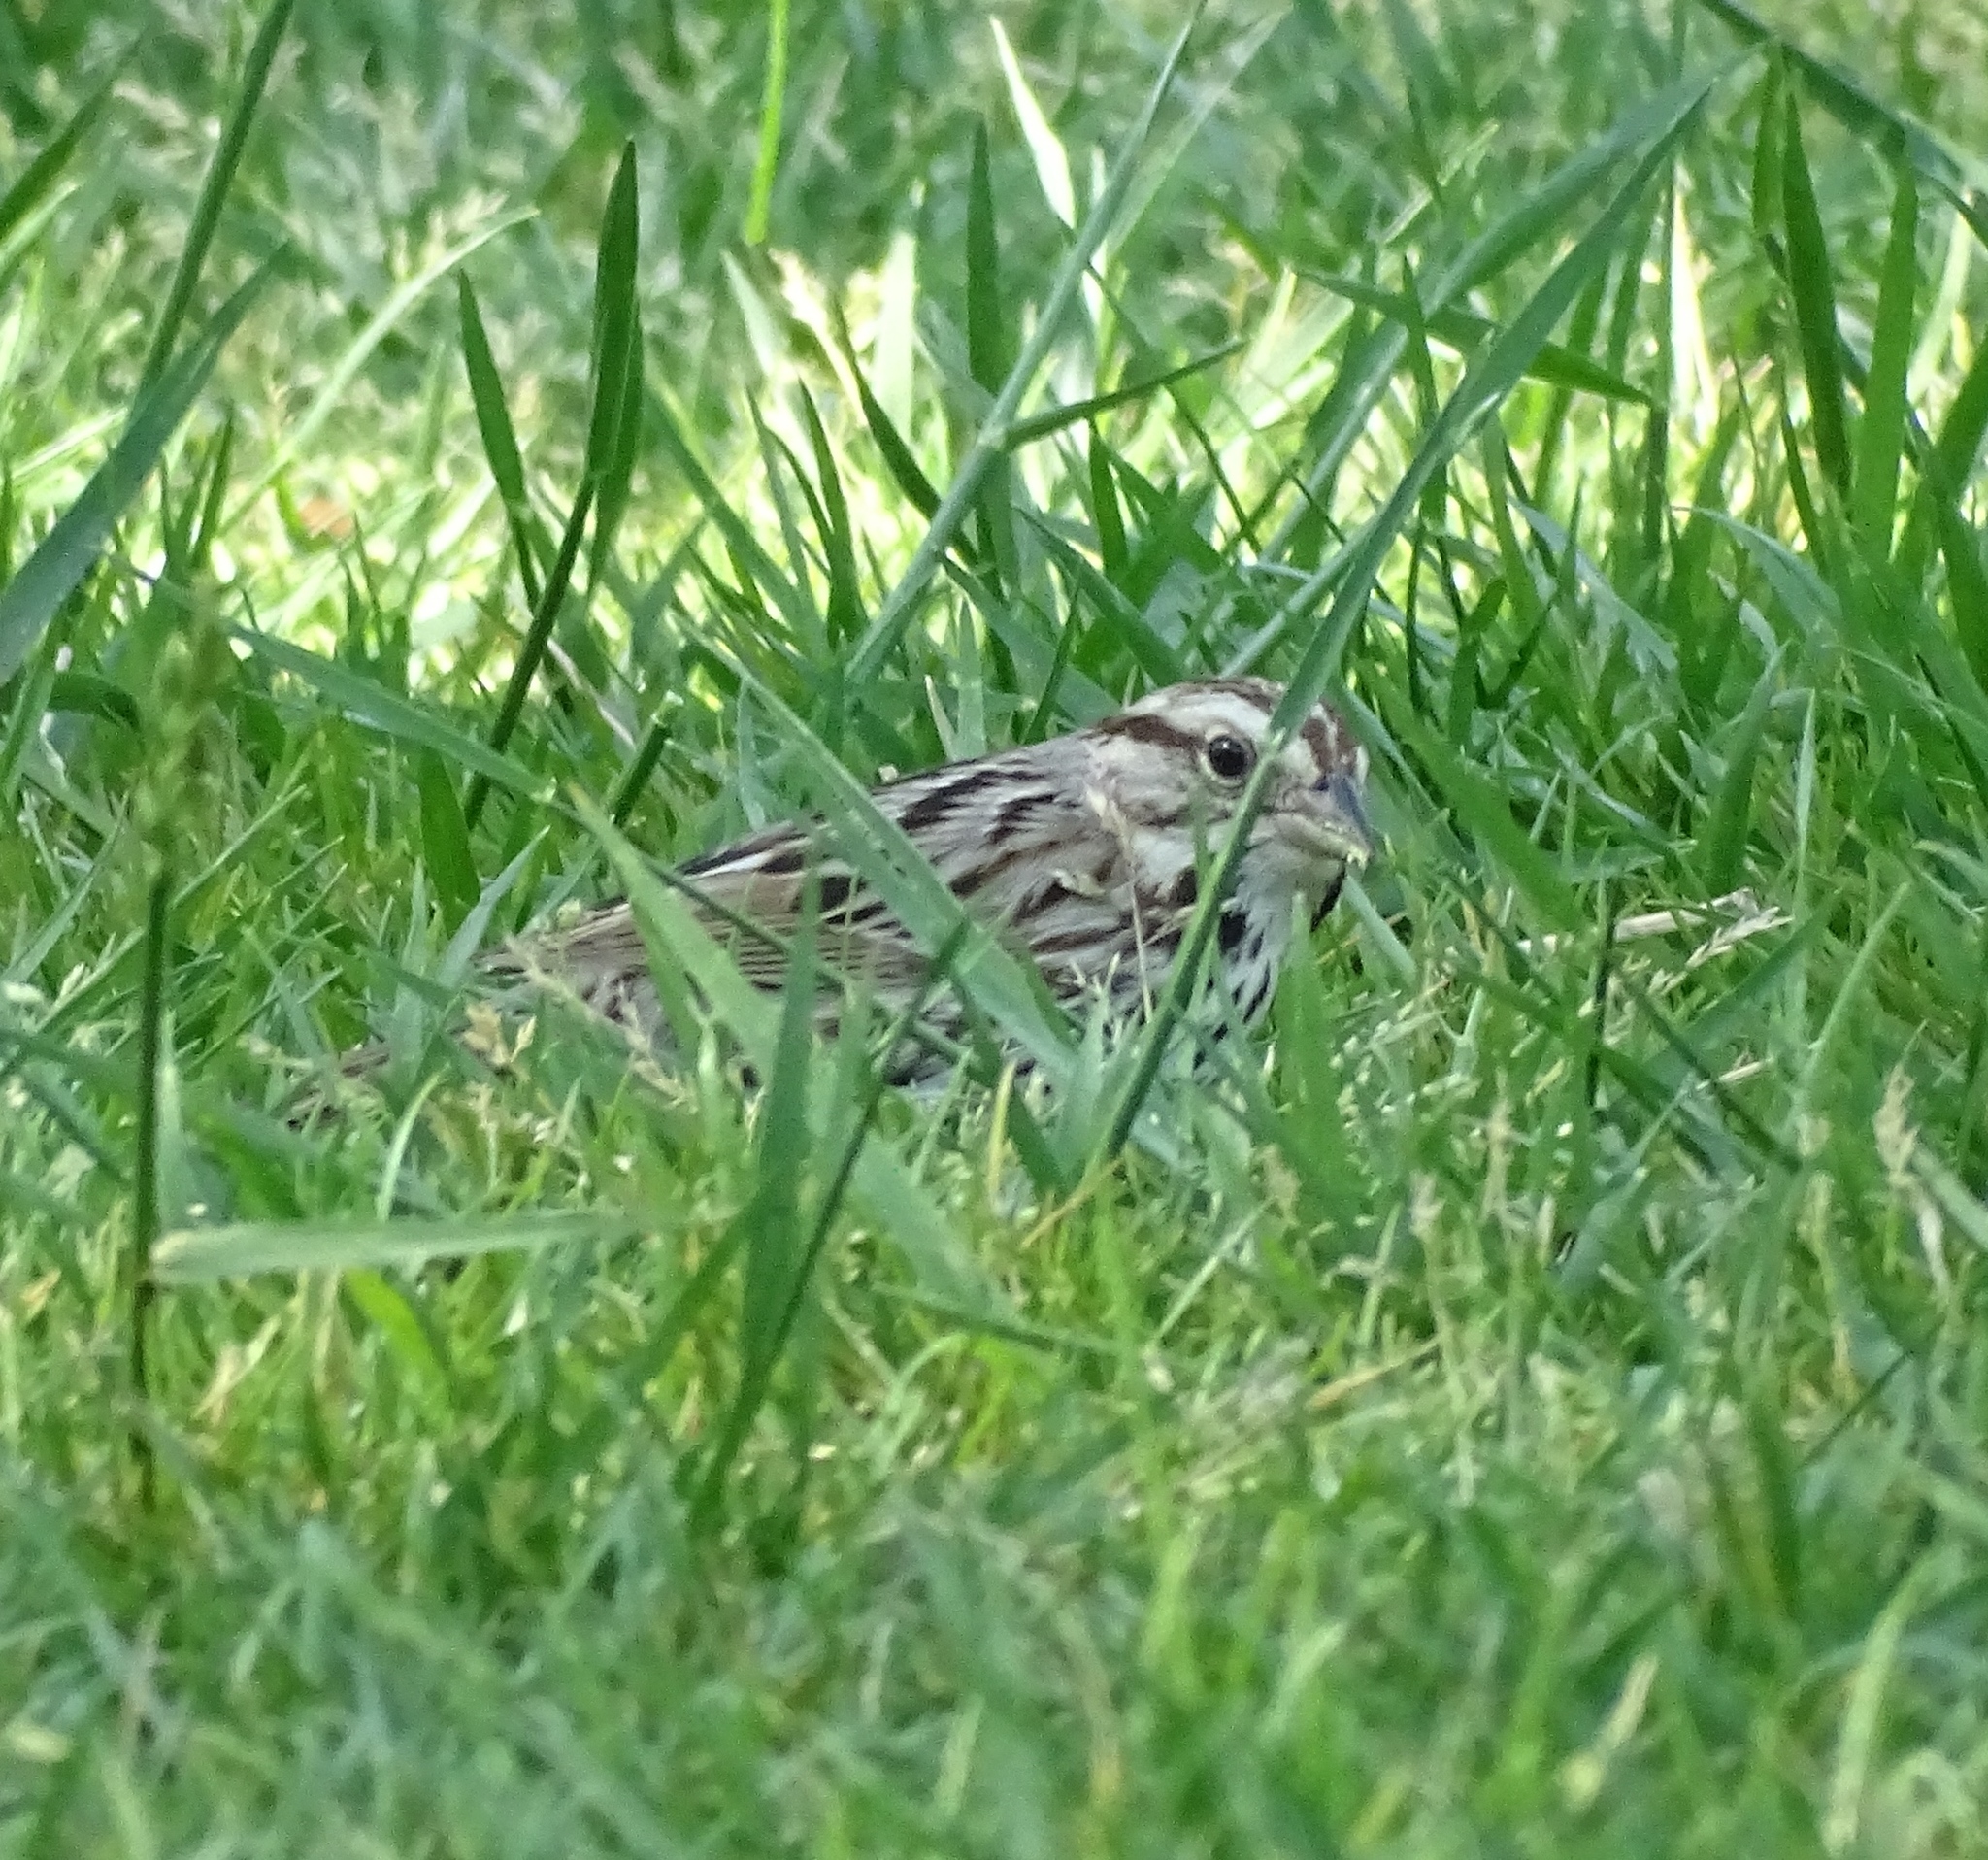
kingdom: Animalia
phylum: Chordata
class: Aves
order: Passeriformes
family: Passerellidae
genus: Melospiza
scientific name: Melospiza melodia
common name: Song sparrow
